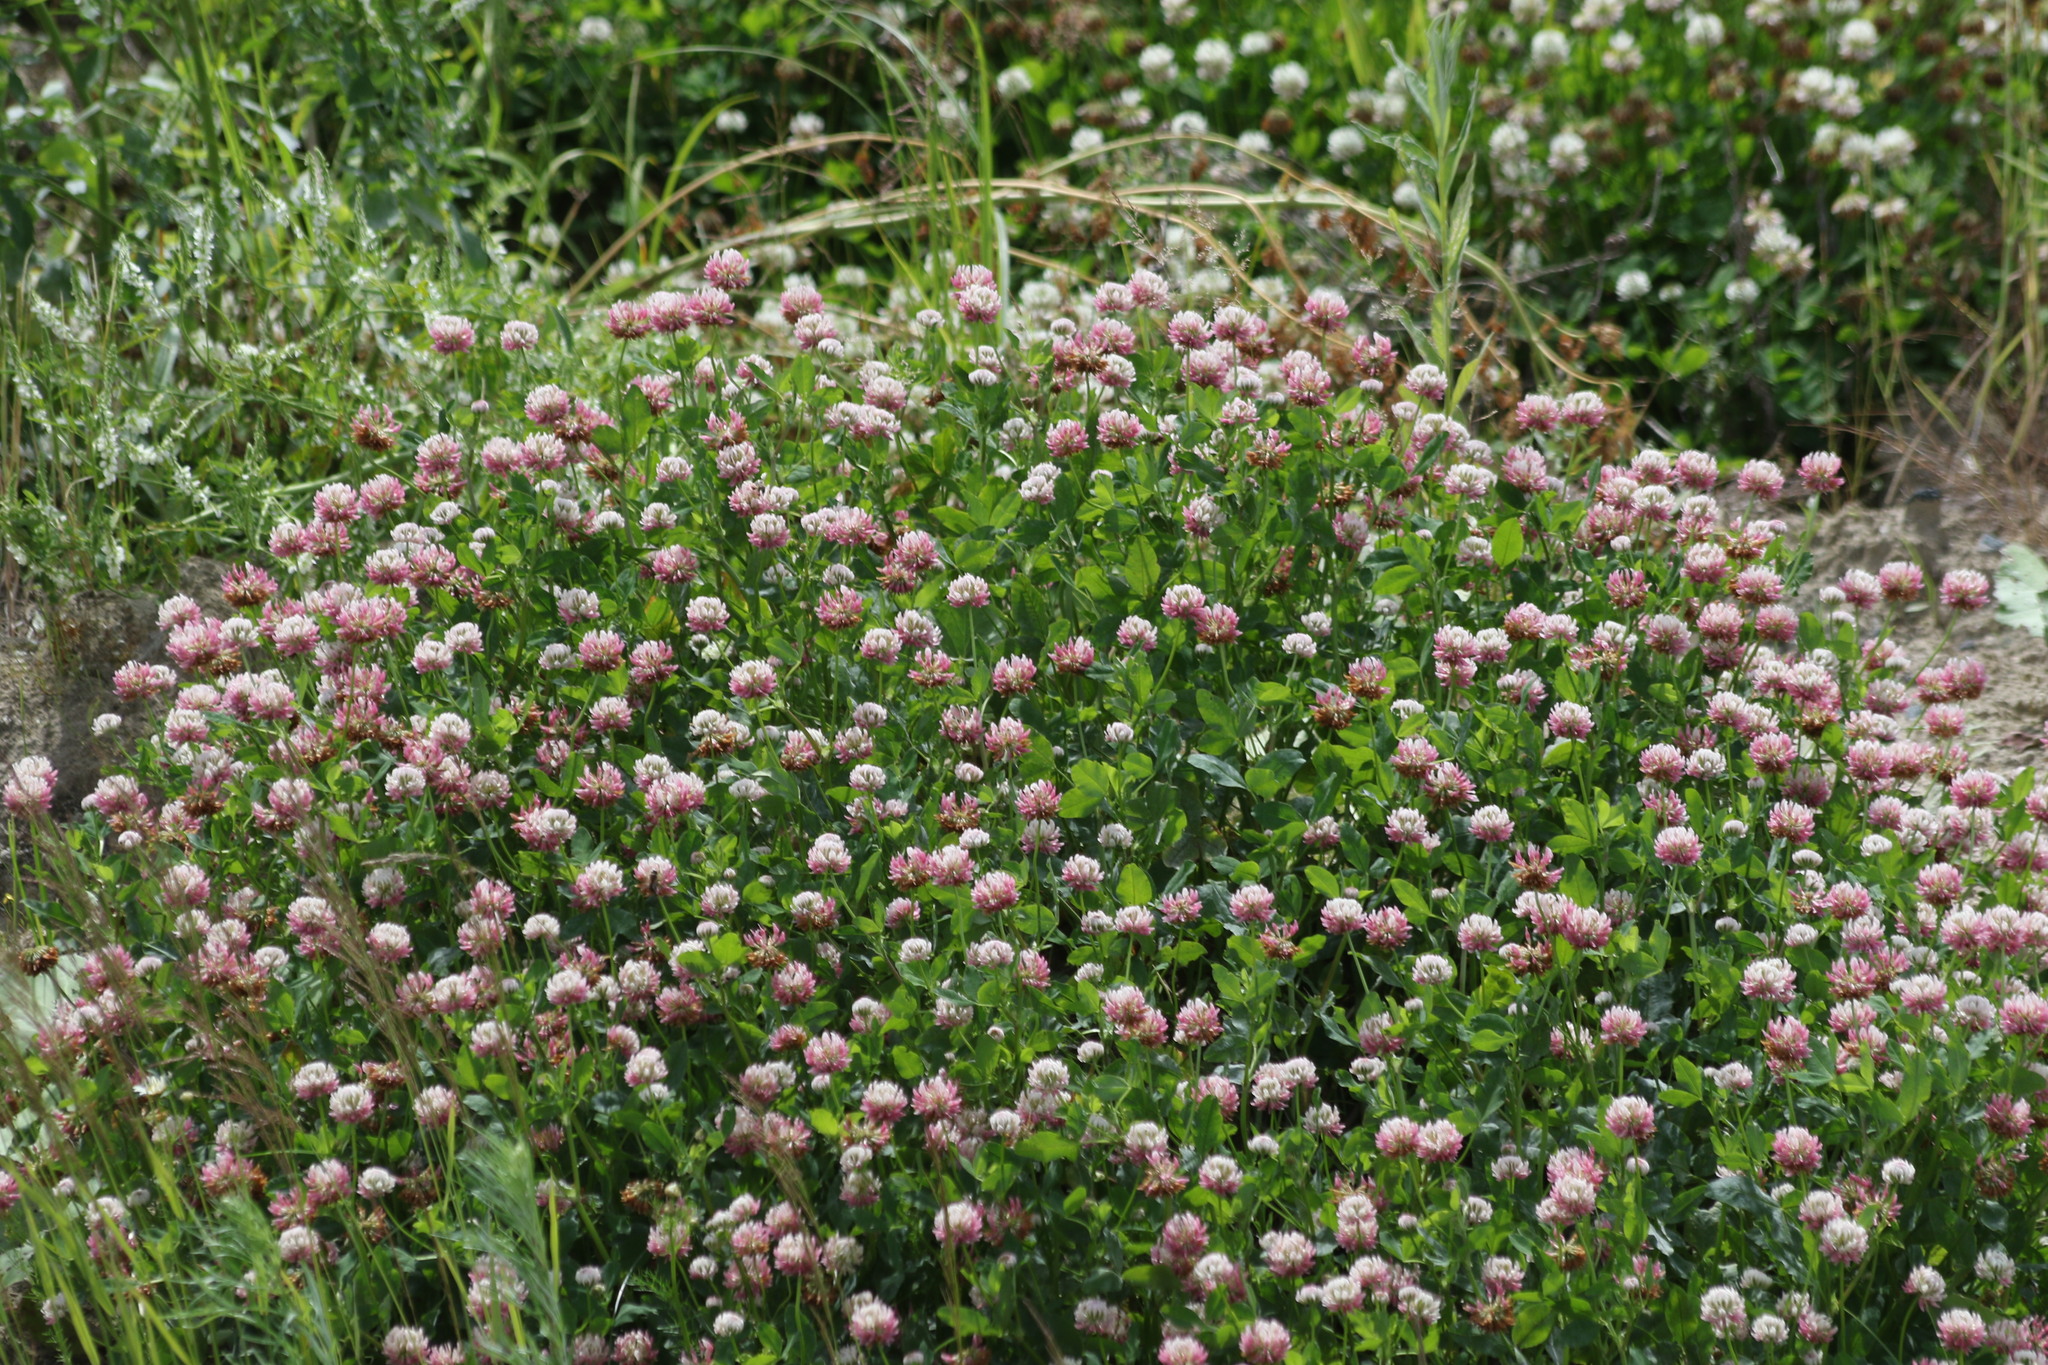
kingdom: Plantae
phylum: Tracheophyta
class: Magnoliopsida
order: Fabales
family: Fabaceae
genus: Trifolium
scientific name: Trifolium hybridum
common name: Alsike clover
